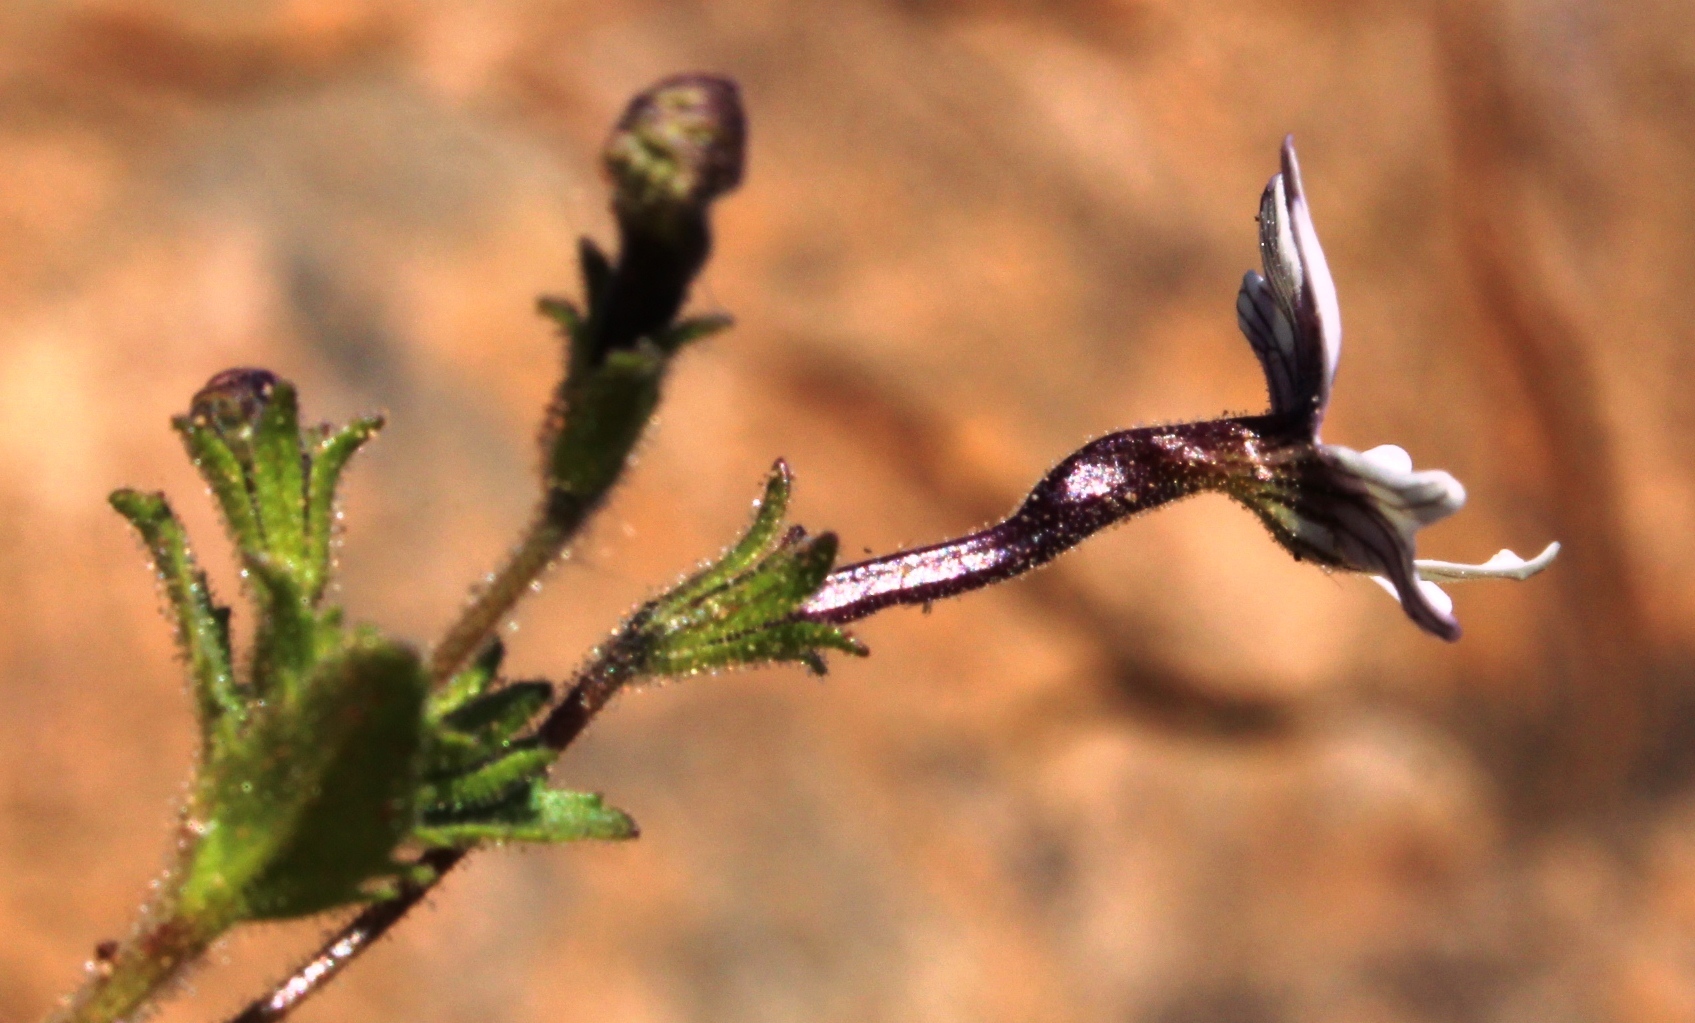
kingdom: Plantae
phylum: Tracheophyta
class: Magnoliopsida
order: Lamiales
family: Scrophulariaceae
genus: Jamesbrittenia
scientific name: Jamesbrittenia racemosa
